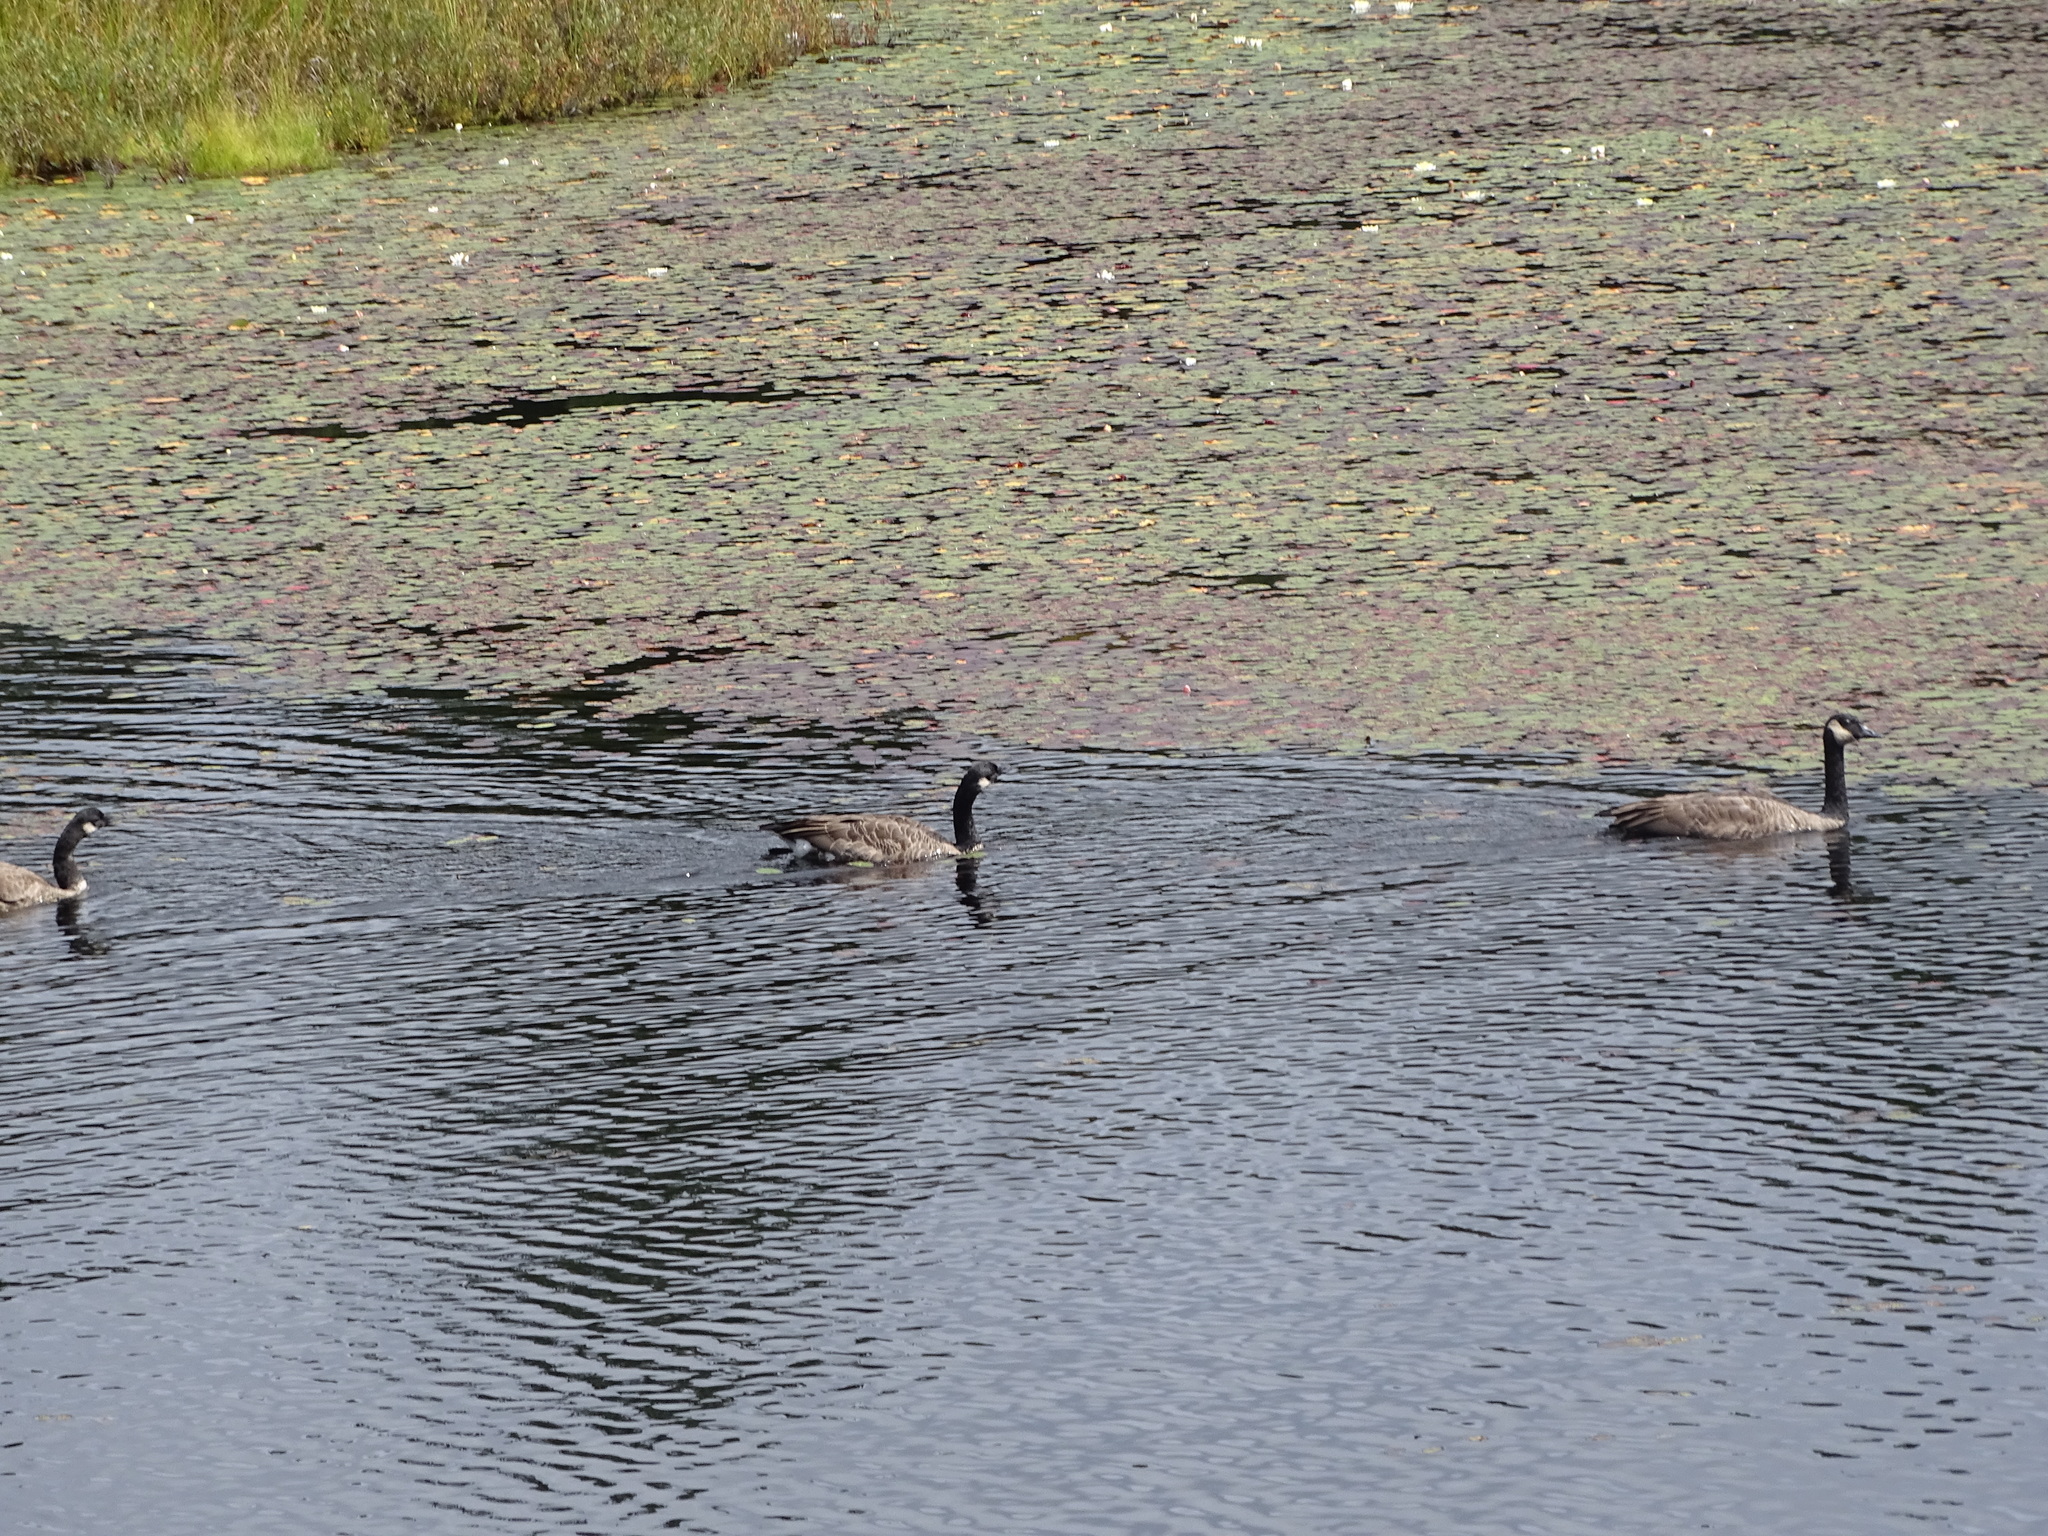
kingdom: Animalia
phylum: Chordata
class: Aves
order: Anseriformes
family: Anatidae
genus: Branta
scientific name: Branta canadensis
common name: Canada goose
